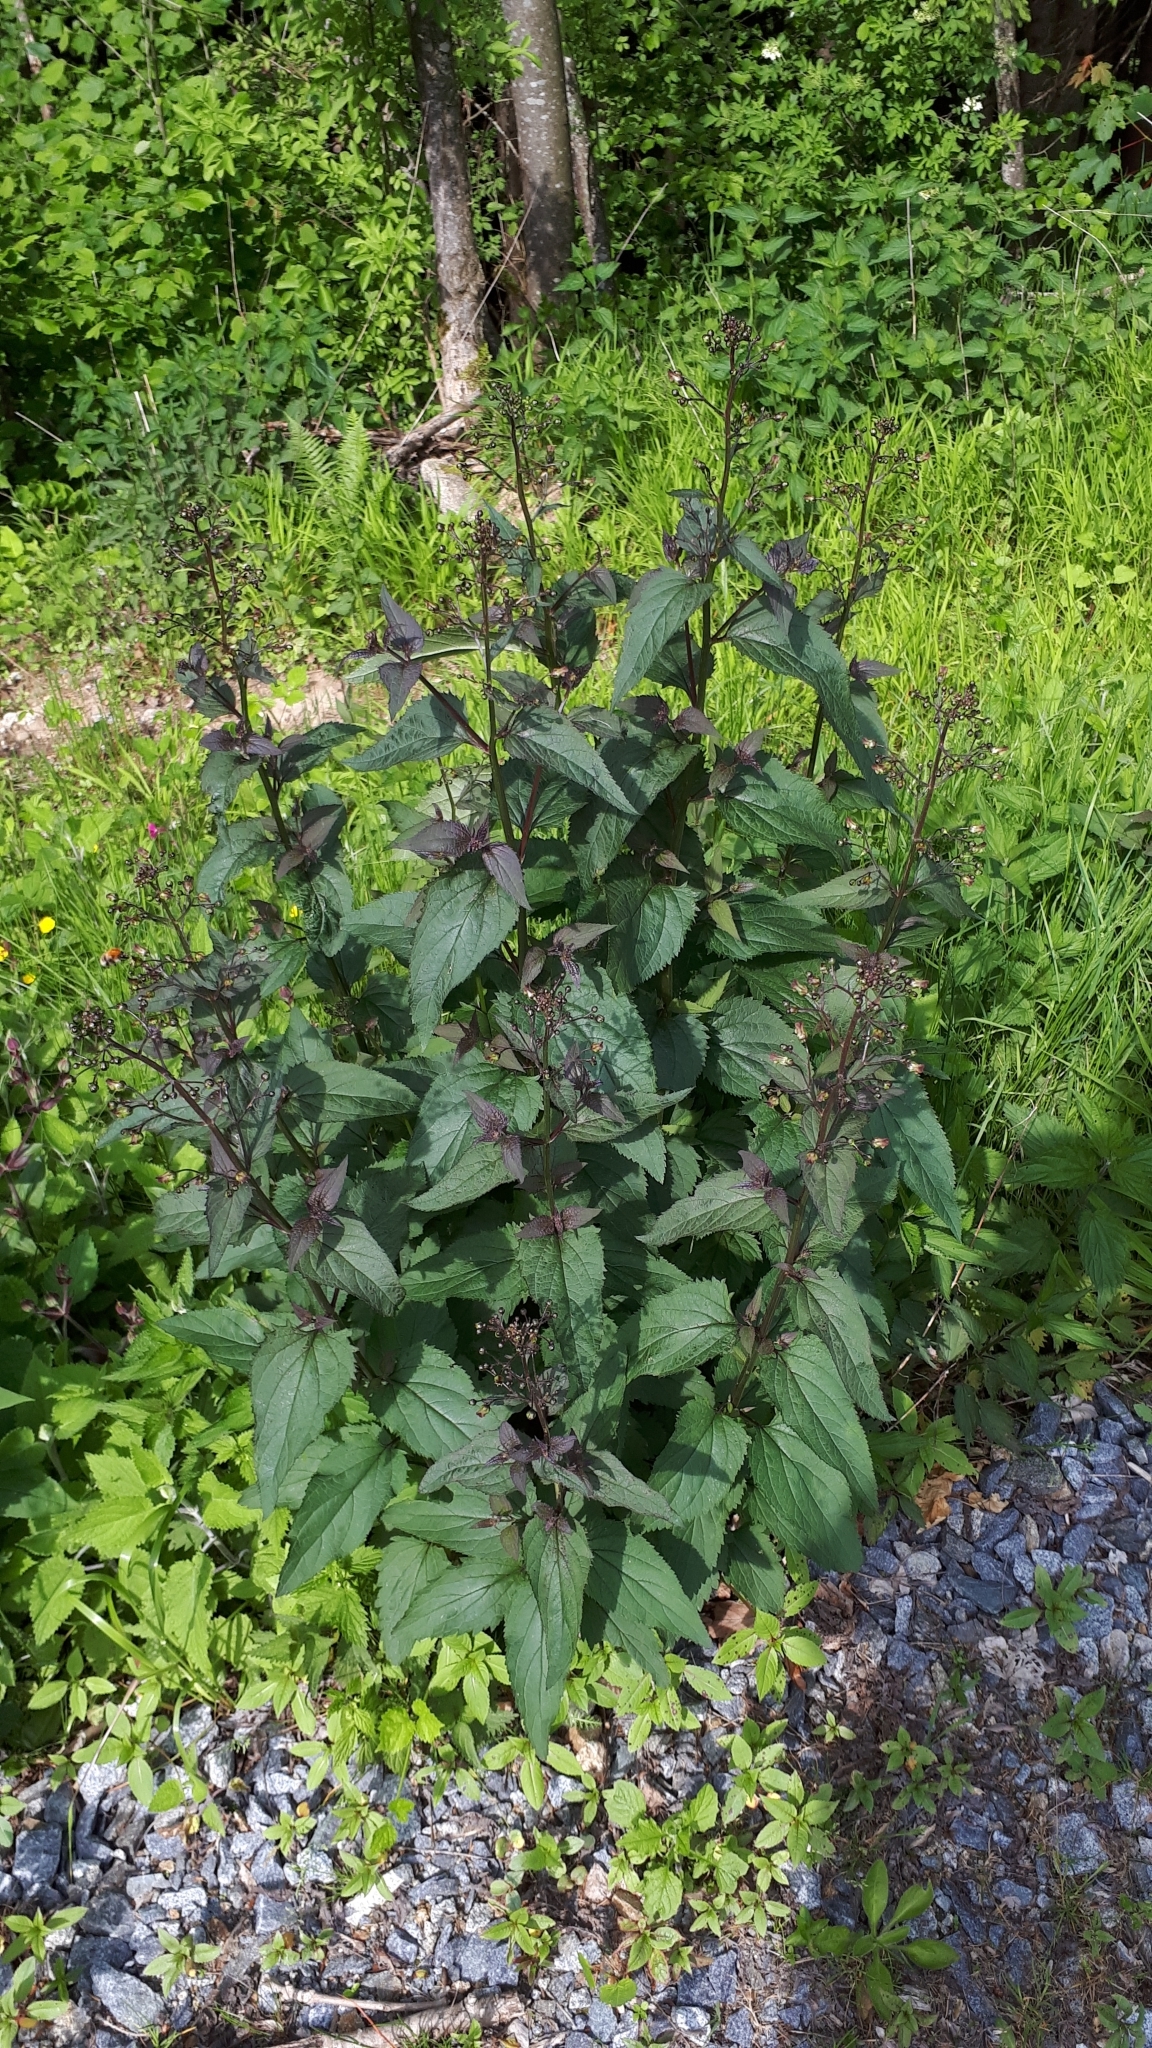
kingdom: Plantae
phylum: Tracheophyta
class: Magnoliopsida
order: Lamiales
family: Scrophulariaceae
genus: Scrophularia
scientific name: Scrophularia nodosa
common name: Common figwort
